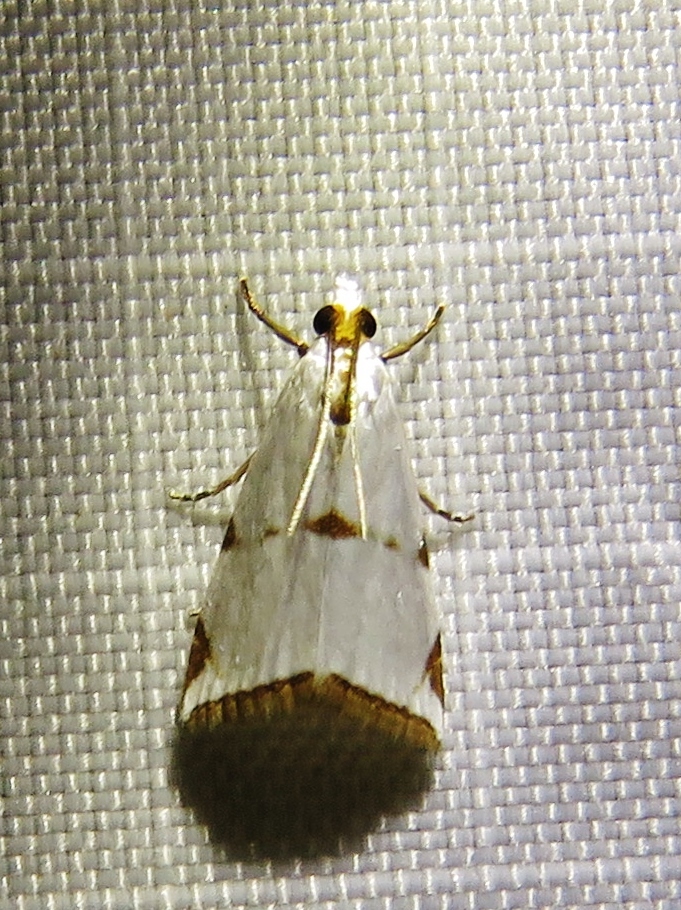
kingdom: Animalia
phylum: Arthropoda
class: Insecta
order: Lepidoptera
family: Crambidae
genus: Argyria
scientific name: Argyria lacteella
